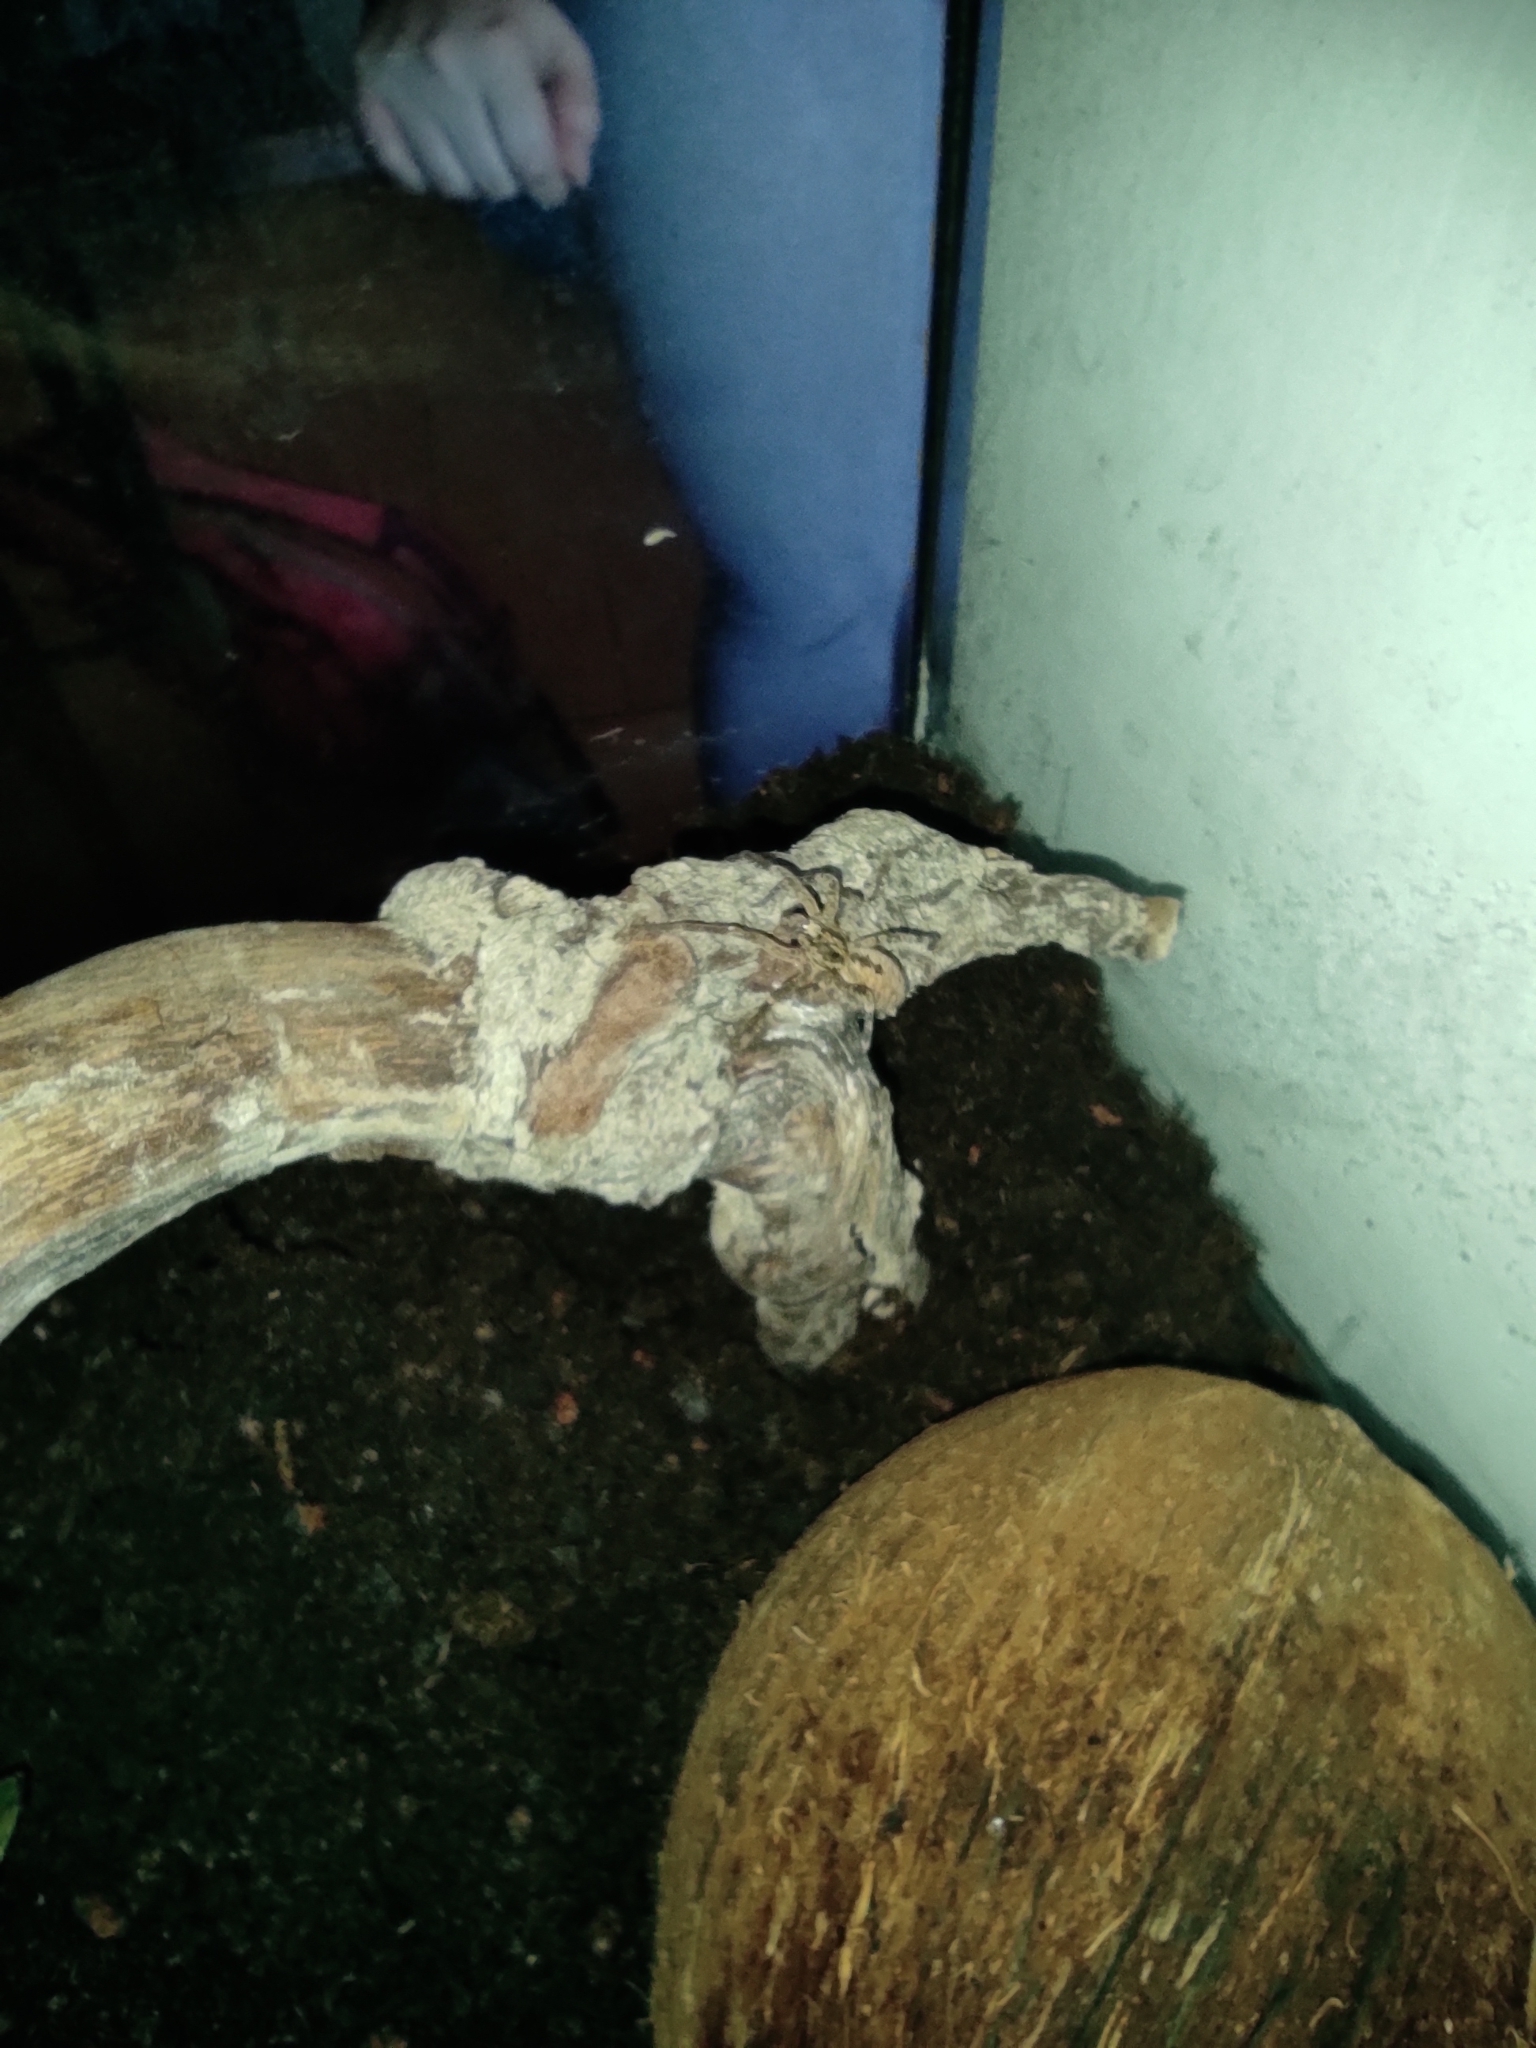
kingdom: Animalia
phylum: Arthropoda
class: Arachnida
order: Araneae
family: Zoropsidae
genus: Zoropsis
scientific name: Zoropsis spinimana
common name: Zoropsid spider
